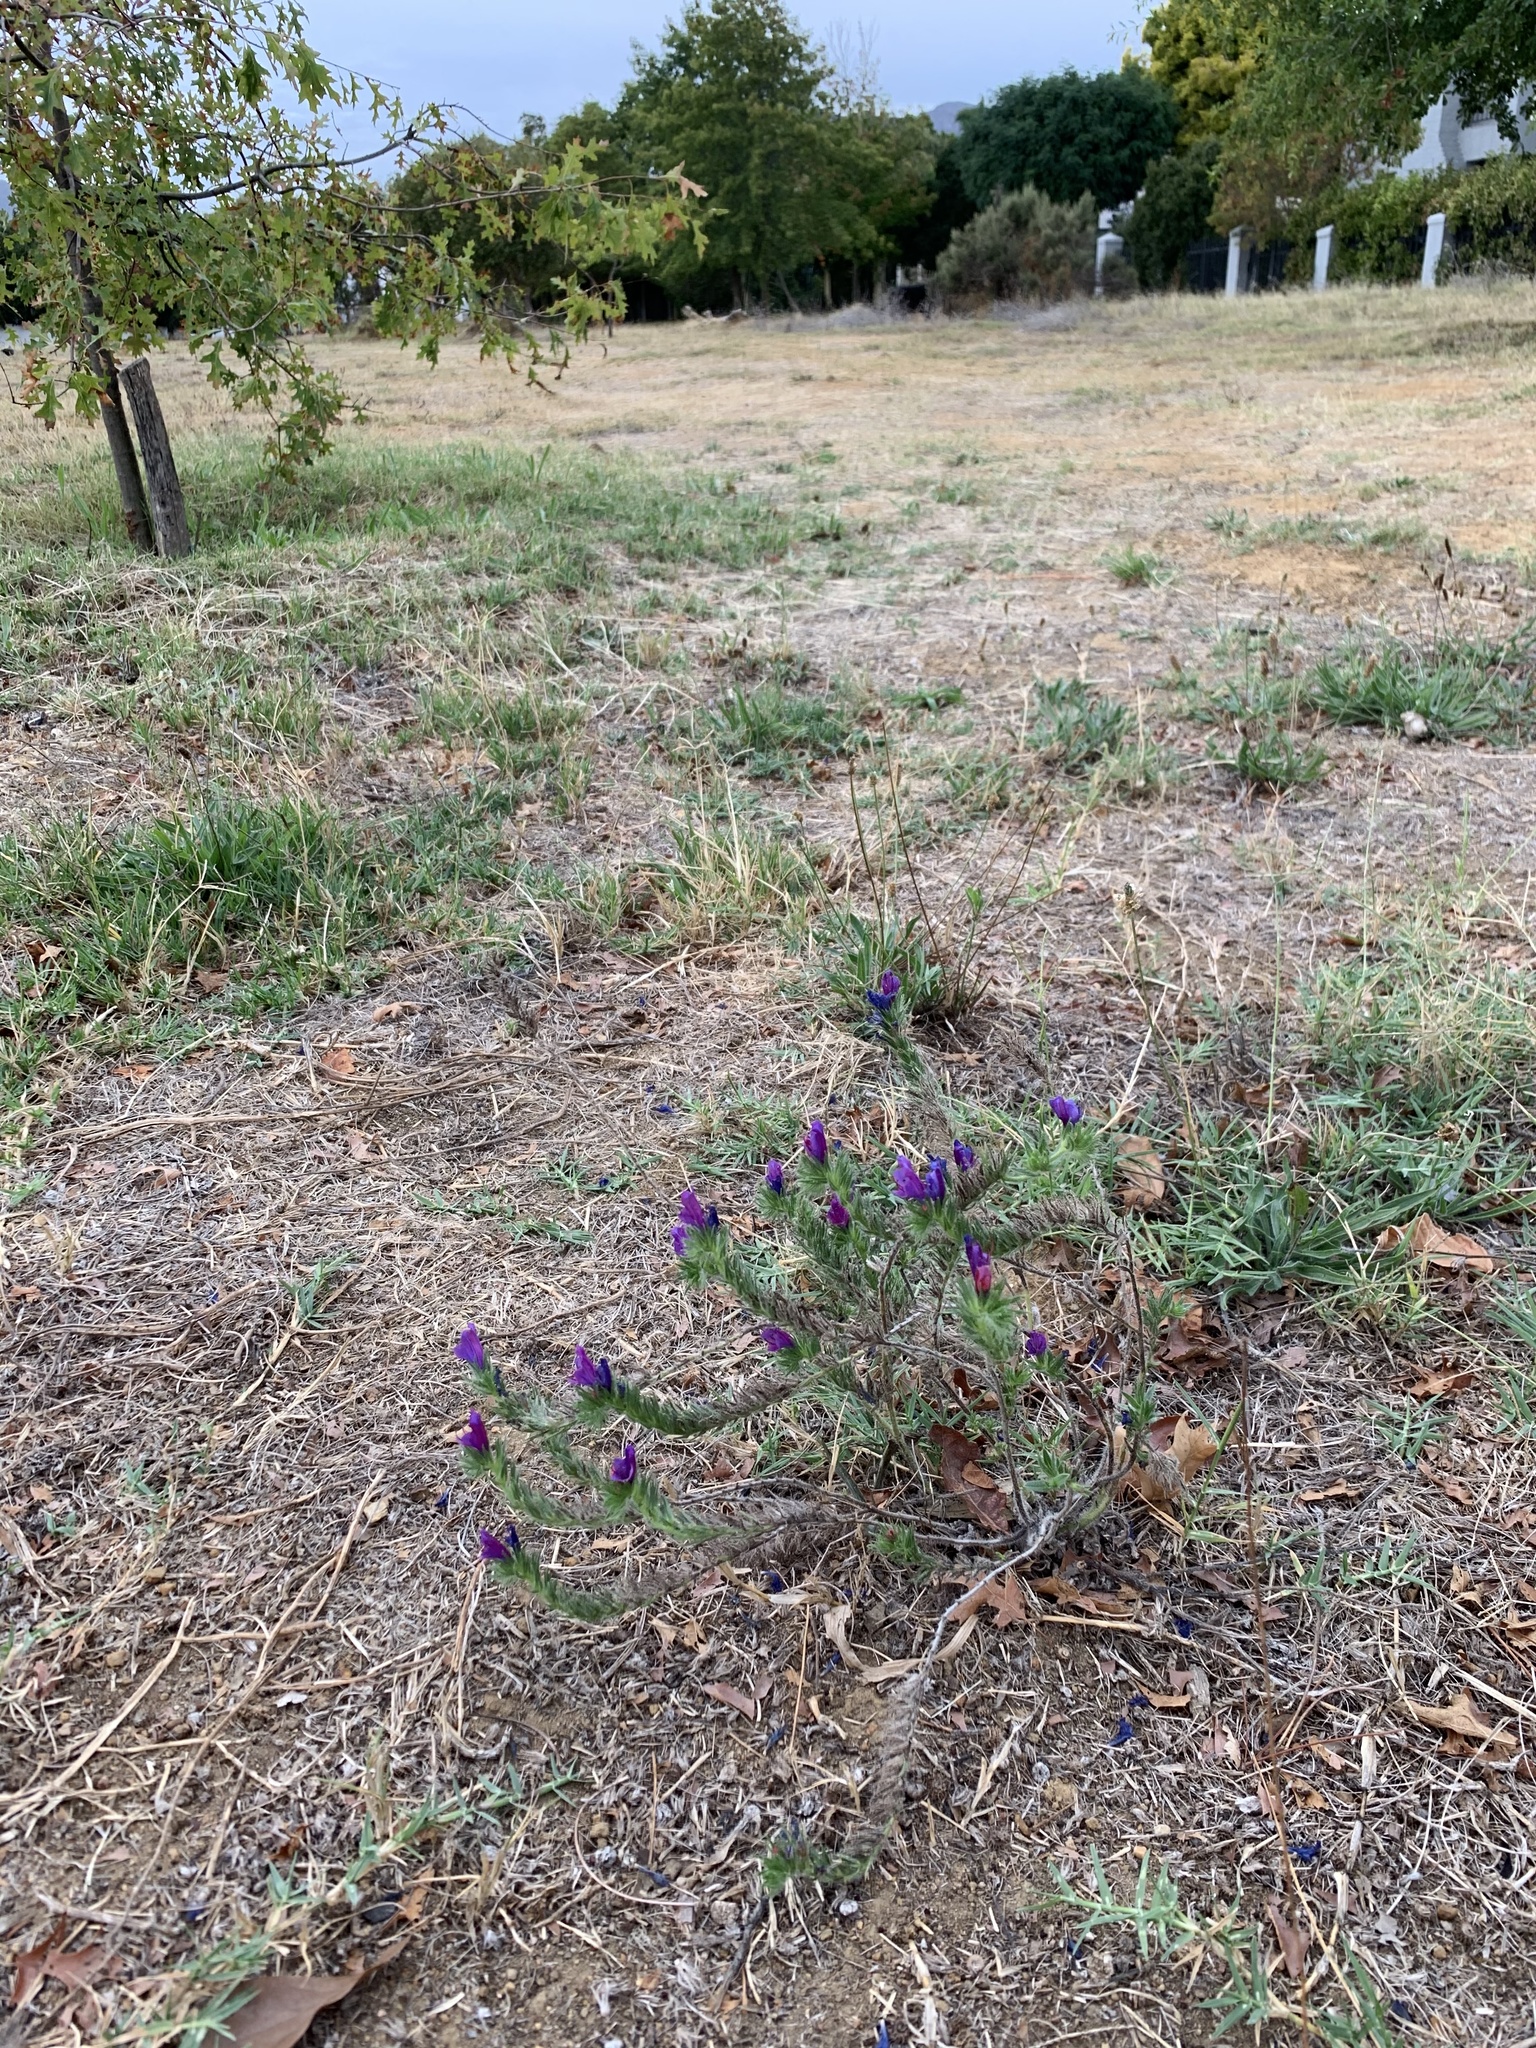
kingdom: Plantae
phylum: Tracheophyta
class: Magnoliopsida
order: Boraginales
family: Boraginaceae
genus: Echium
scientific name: Echium plantagineum
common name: Purple viper's-bugloss
